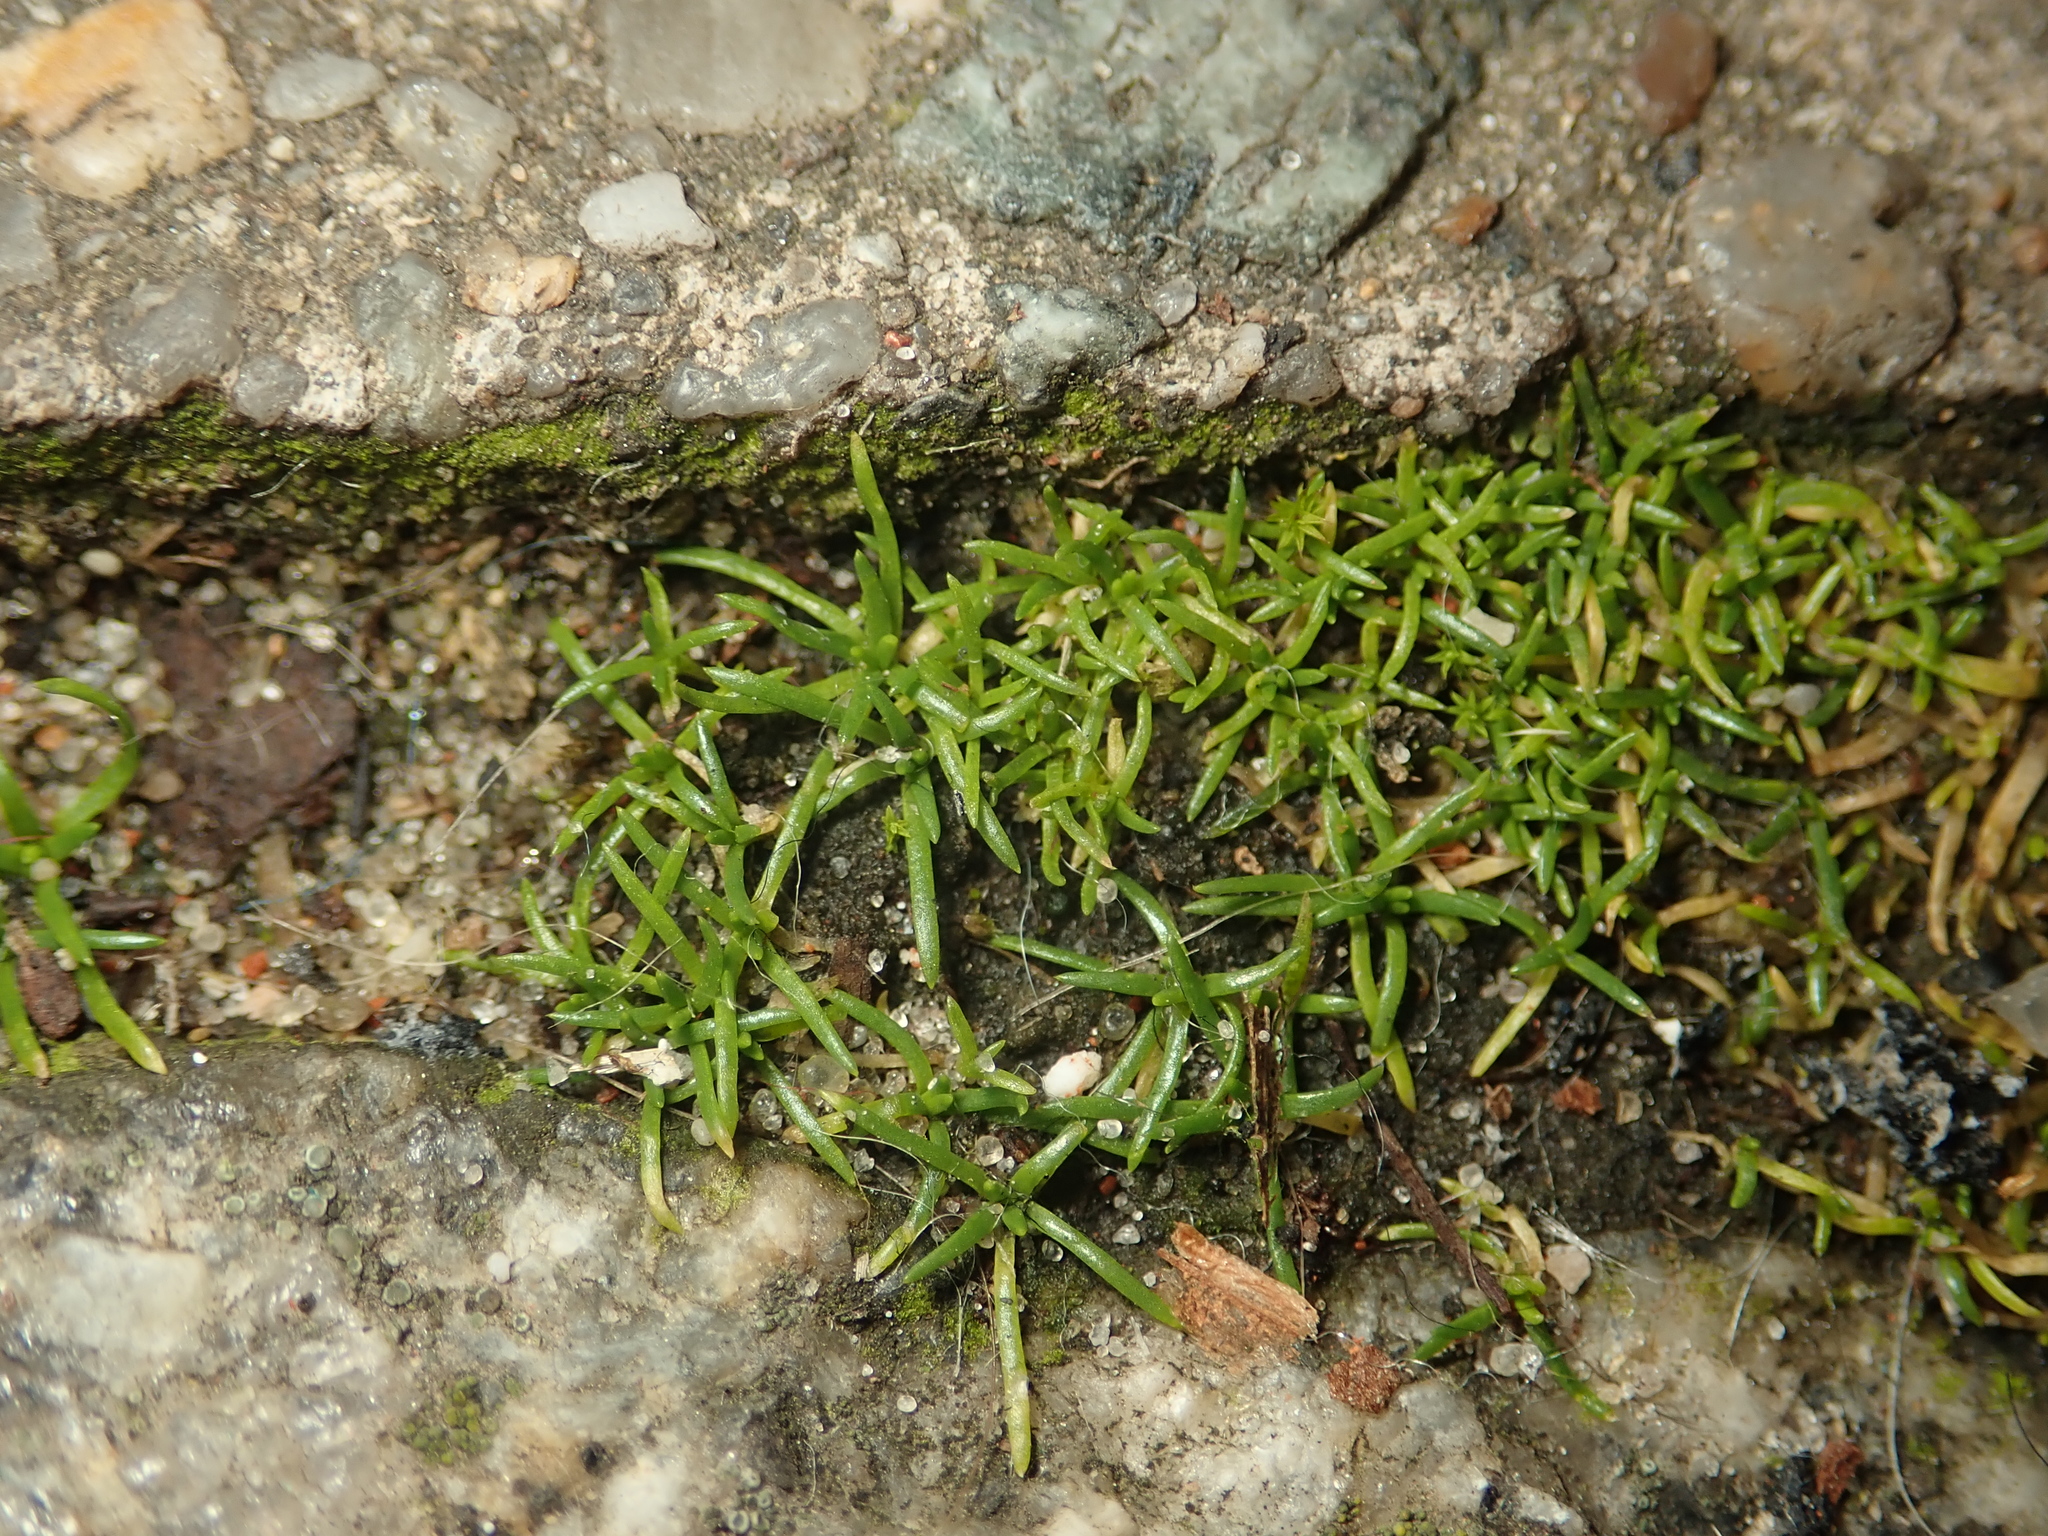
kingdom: Plantae
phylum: Tracheophyta
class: Magnoliopsida
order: Caryophyllales
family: Caryophyllaceae
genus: Sagina
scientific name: Sagina procumbens
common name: Procumbent pearlwort
